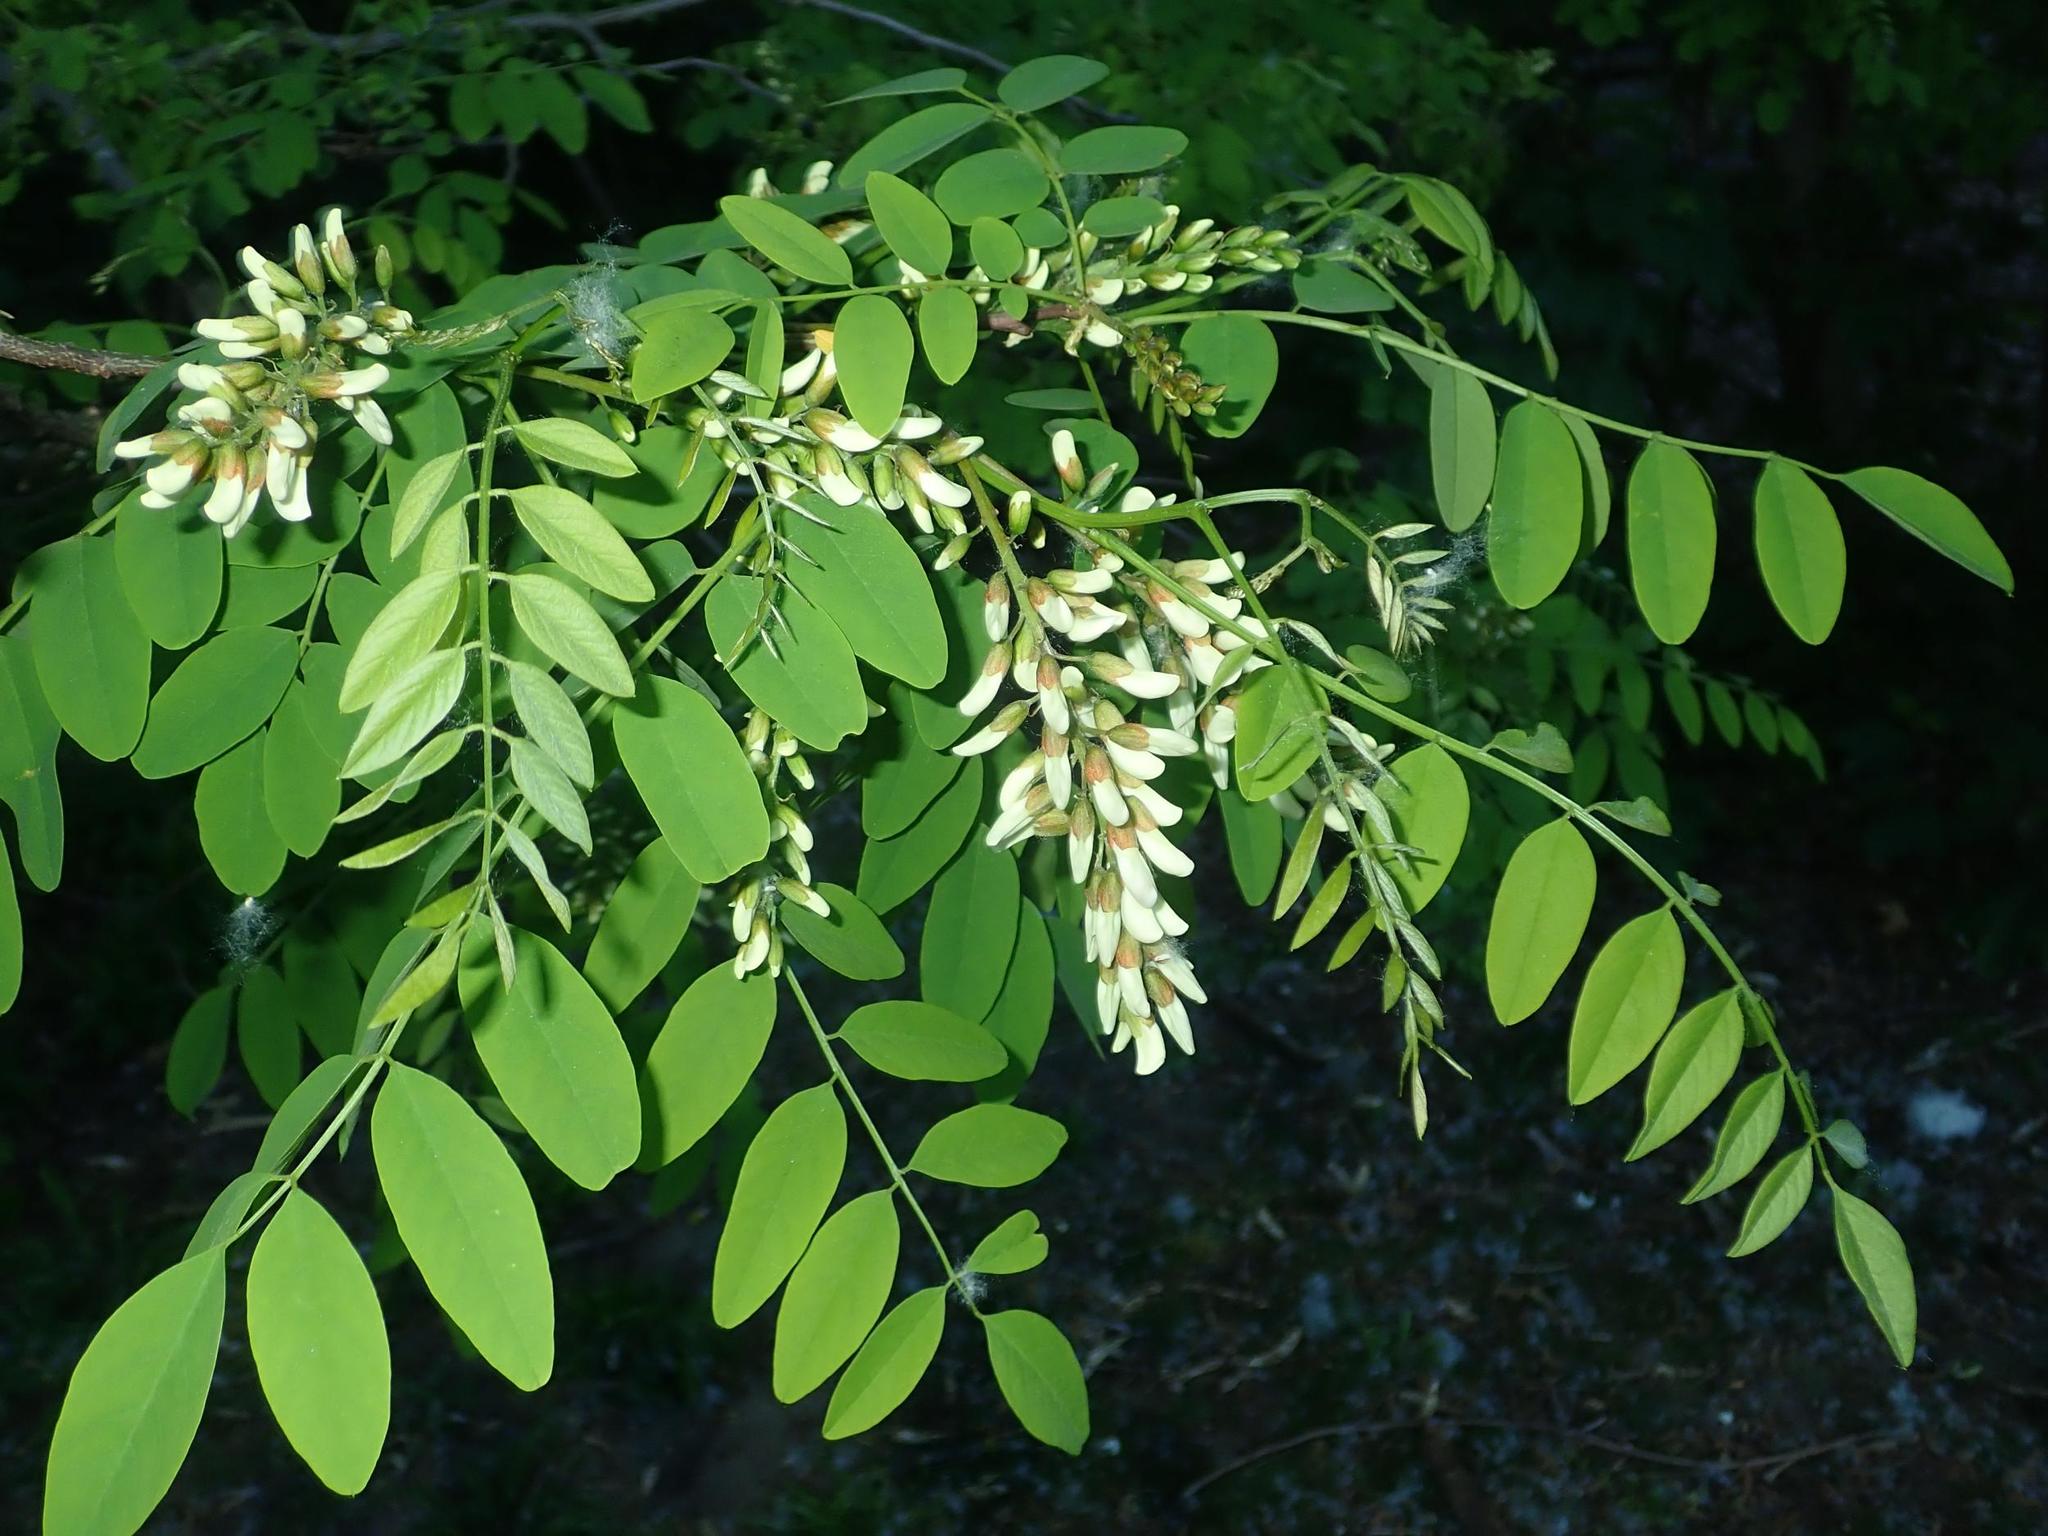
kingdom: Plantae
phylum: Tracheophyta
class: Magnoliopsida
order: Fabales
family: Fabaceae
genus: Robinia
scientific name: Robinia pseudoacacia
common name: Black locust
